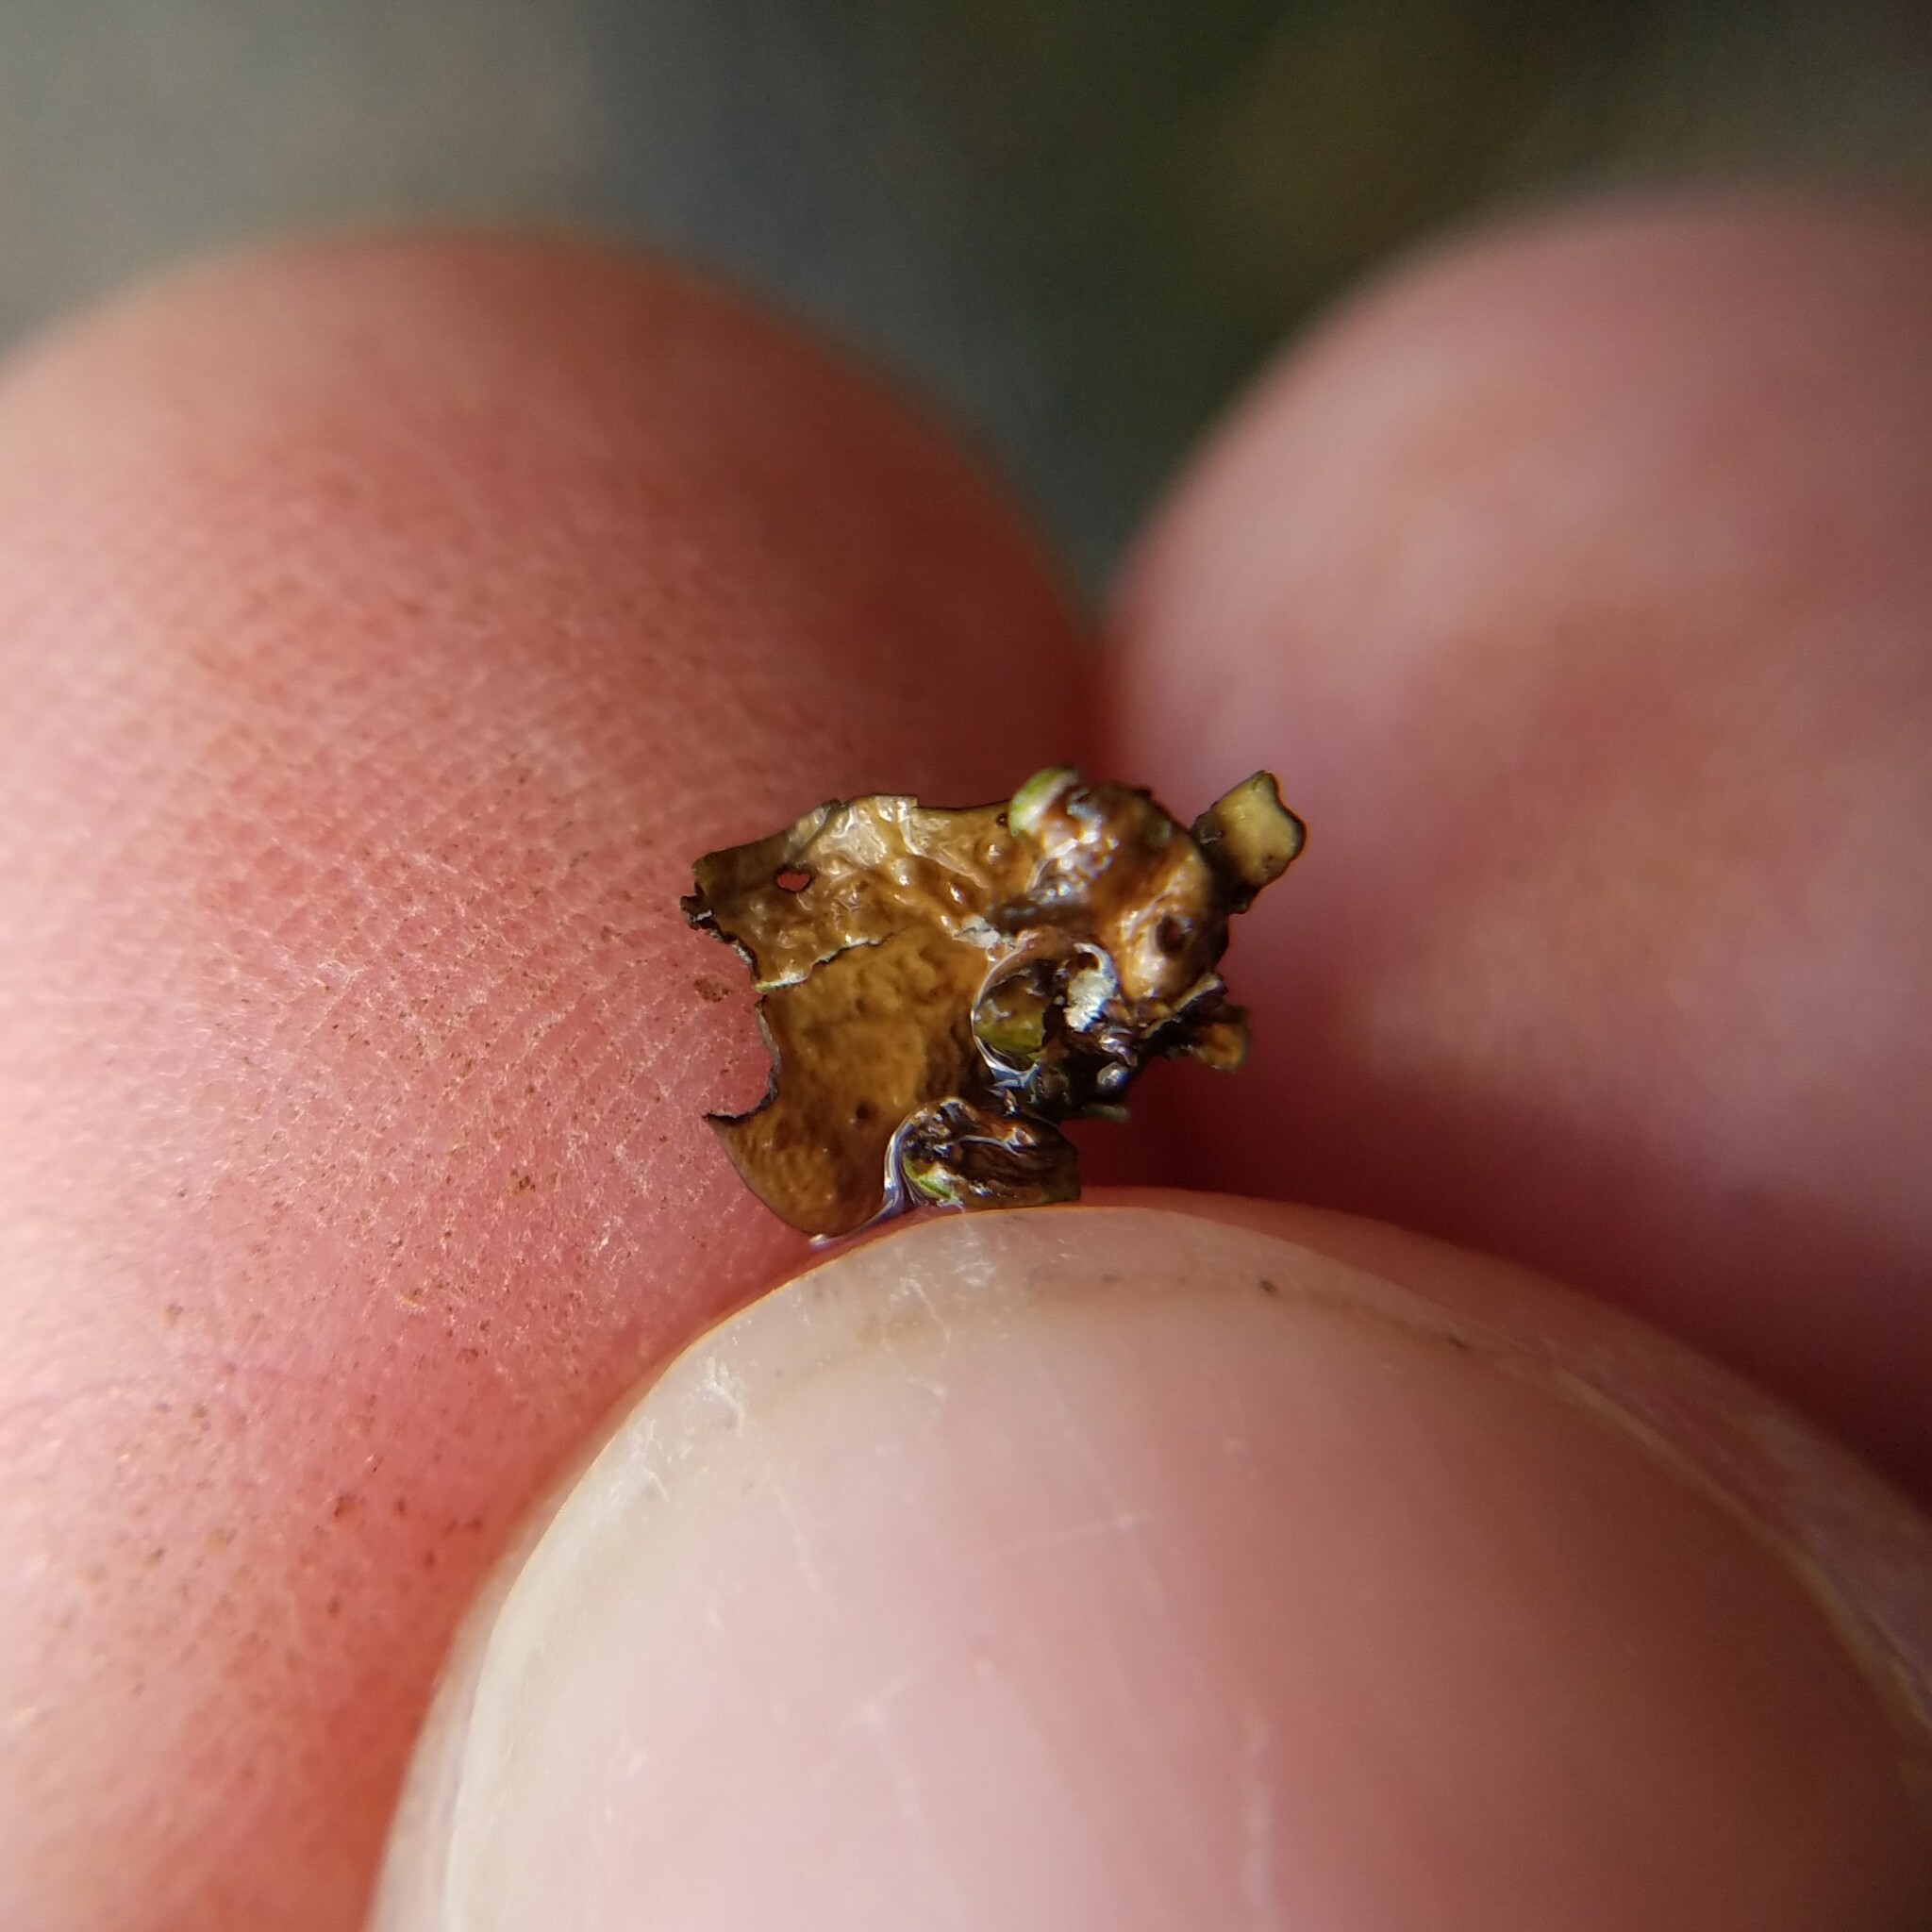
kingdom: Fungi
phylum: Ascomycota
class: Eurotiomycetes
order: Verrucariales
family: Verrucariaceae
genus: Dermatocarpon
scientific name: Dermatocarpon luridum
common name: Brook stippleback lichen
